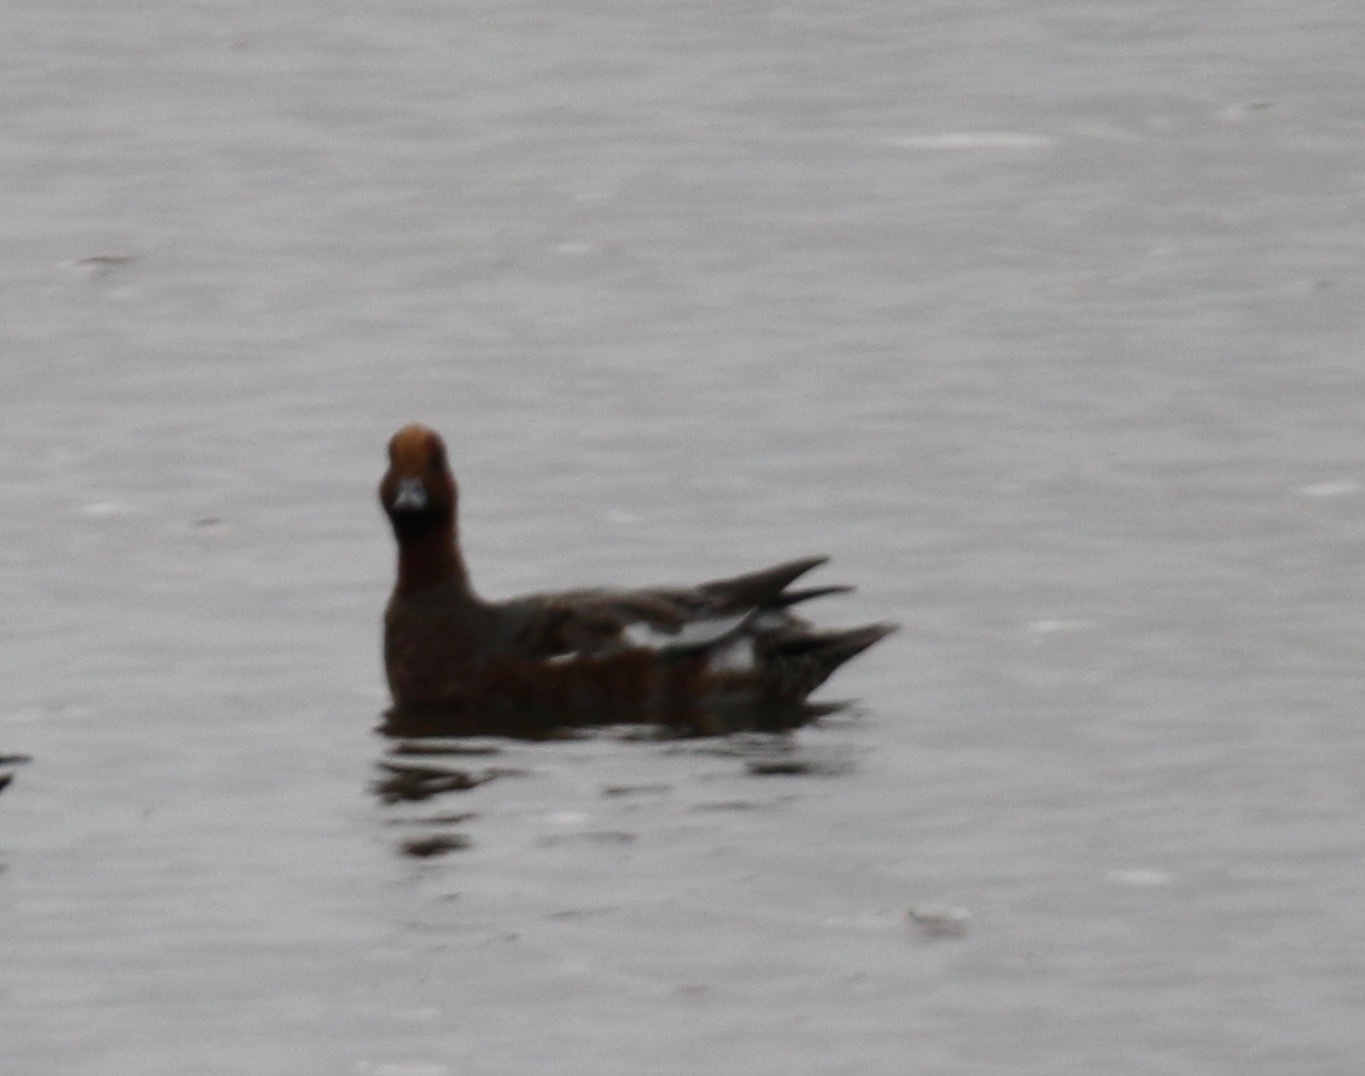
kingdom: Animalia
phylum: Chordata
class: Aves
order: Anseriformes
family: Anatidae
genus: Mareca
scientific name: Mareca penelope
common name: Eurasian wigeon
